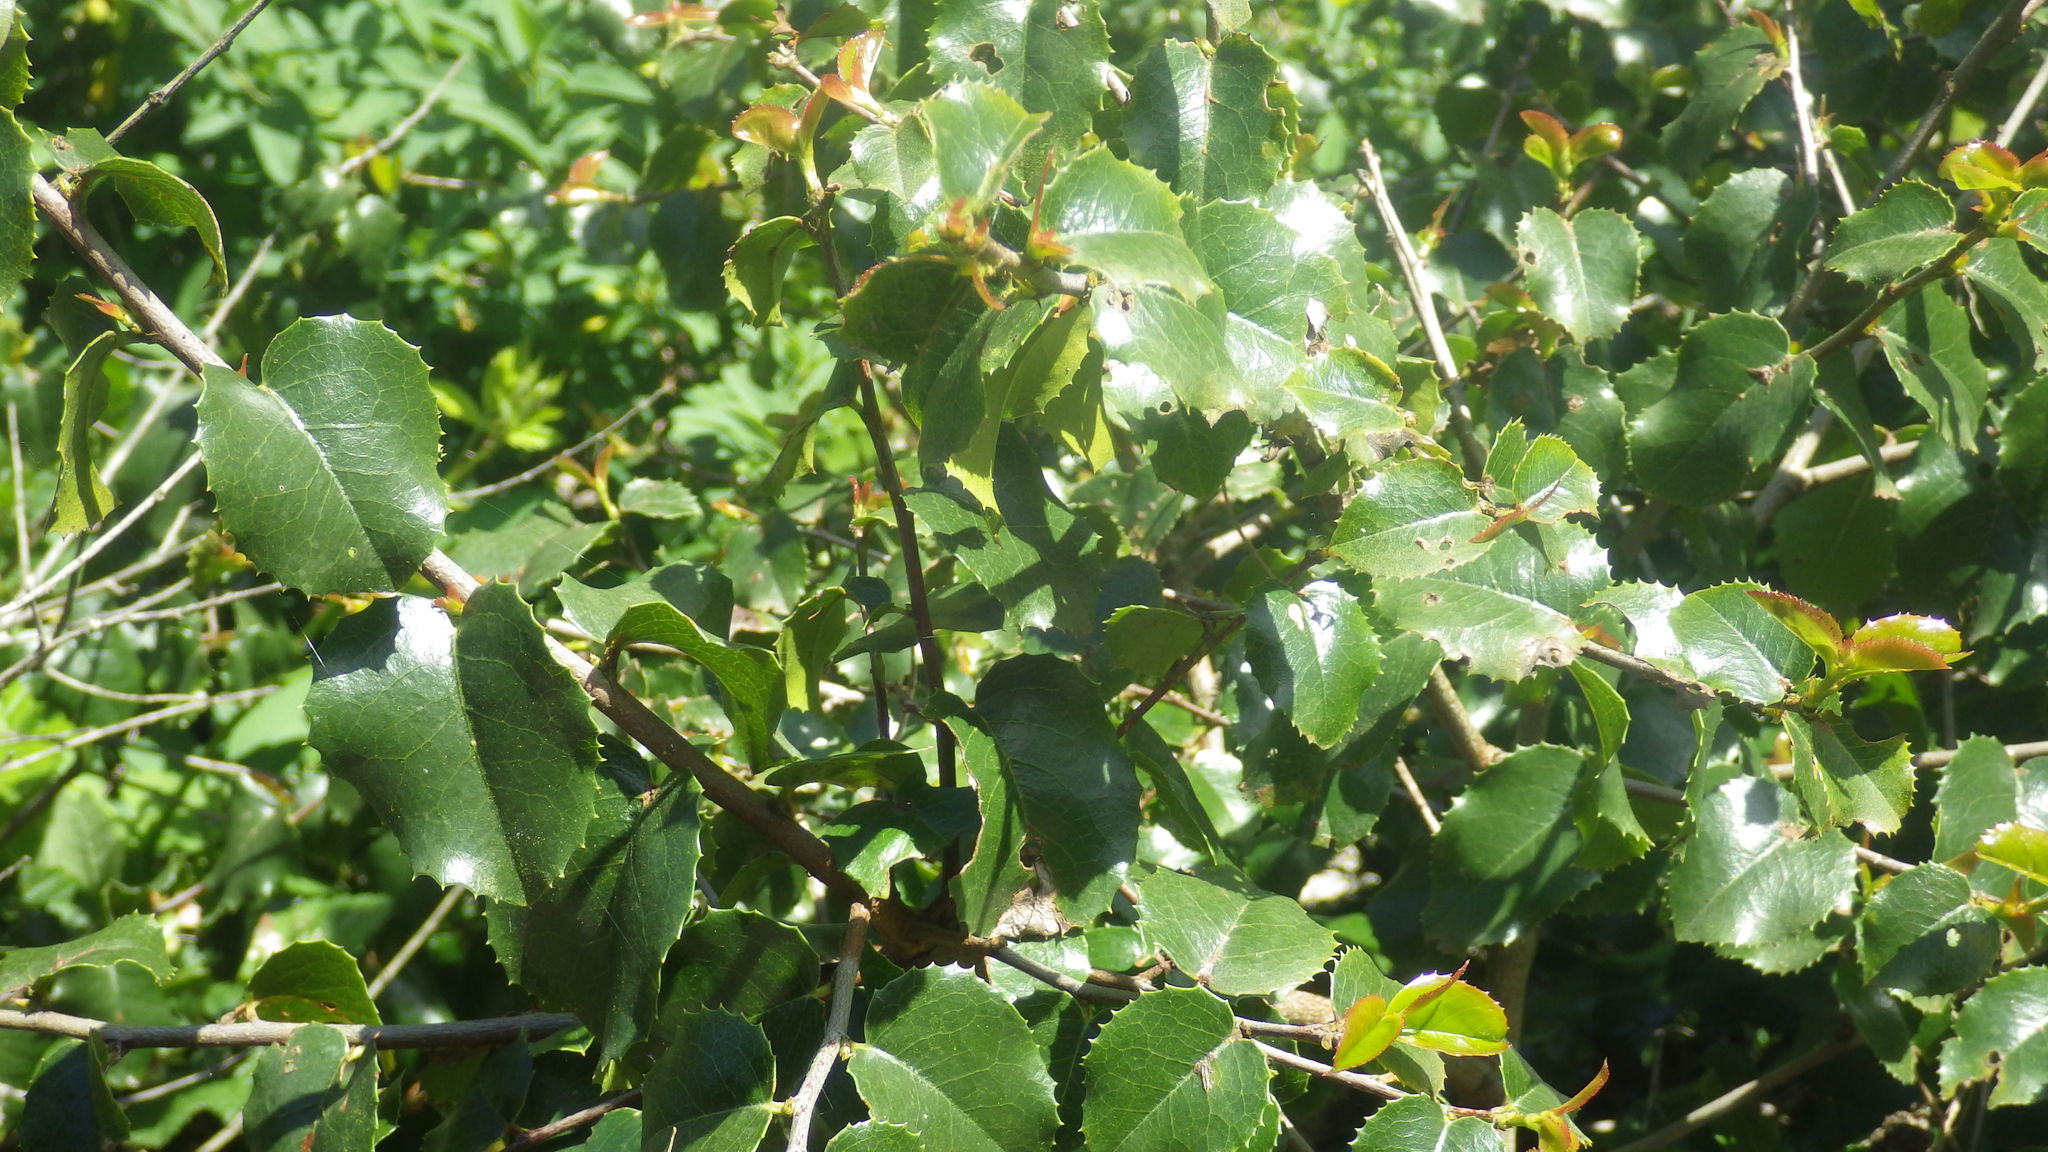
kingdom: Plantae
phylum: Tracheophyta
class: Magnoliopsida
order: Rosales
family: Rosaceae
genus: Prunus
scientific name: Prunus ilicifolia
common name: Hollyleaf cherry
